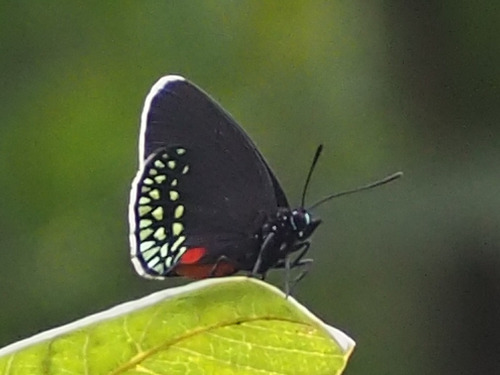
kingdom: Animalia
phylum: Arthropoda
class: Insecta
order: Lepidoptera
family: Lycaenidae
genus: Eumaeus
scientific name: Eumaeus toxea
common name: Mexican cycadian
